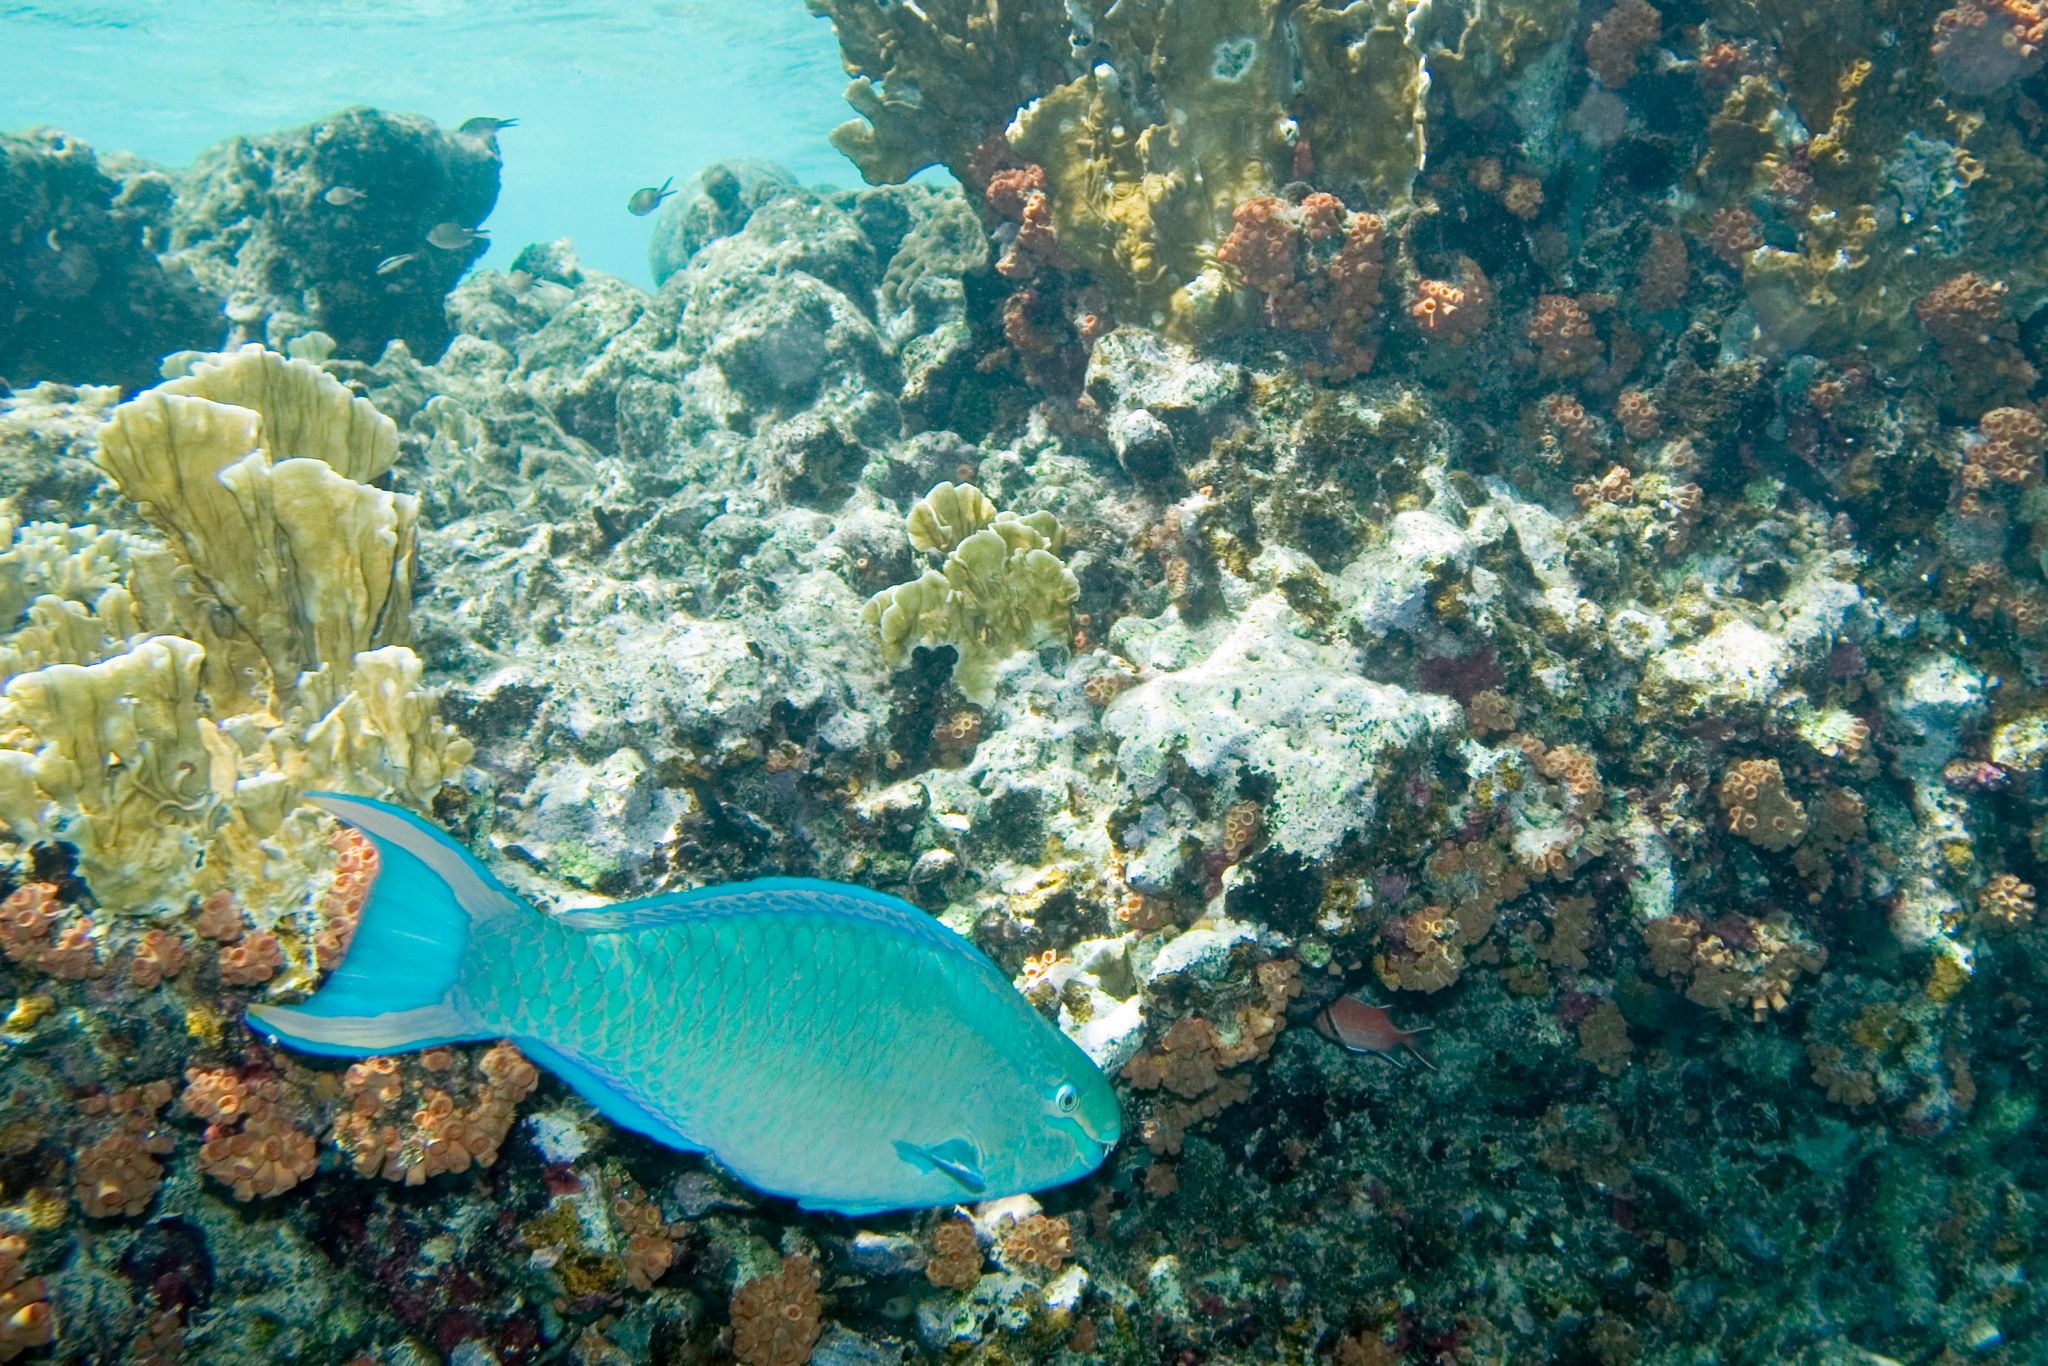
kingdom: Animalia
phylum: Chordata
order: Perciformes
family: Scaridae
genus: Scarus
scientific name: Scarus vetula
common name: Queen parrotfish
